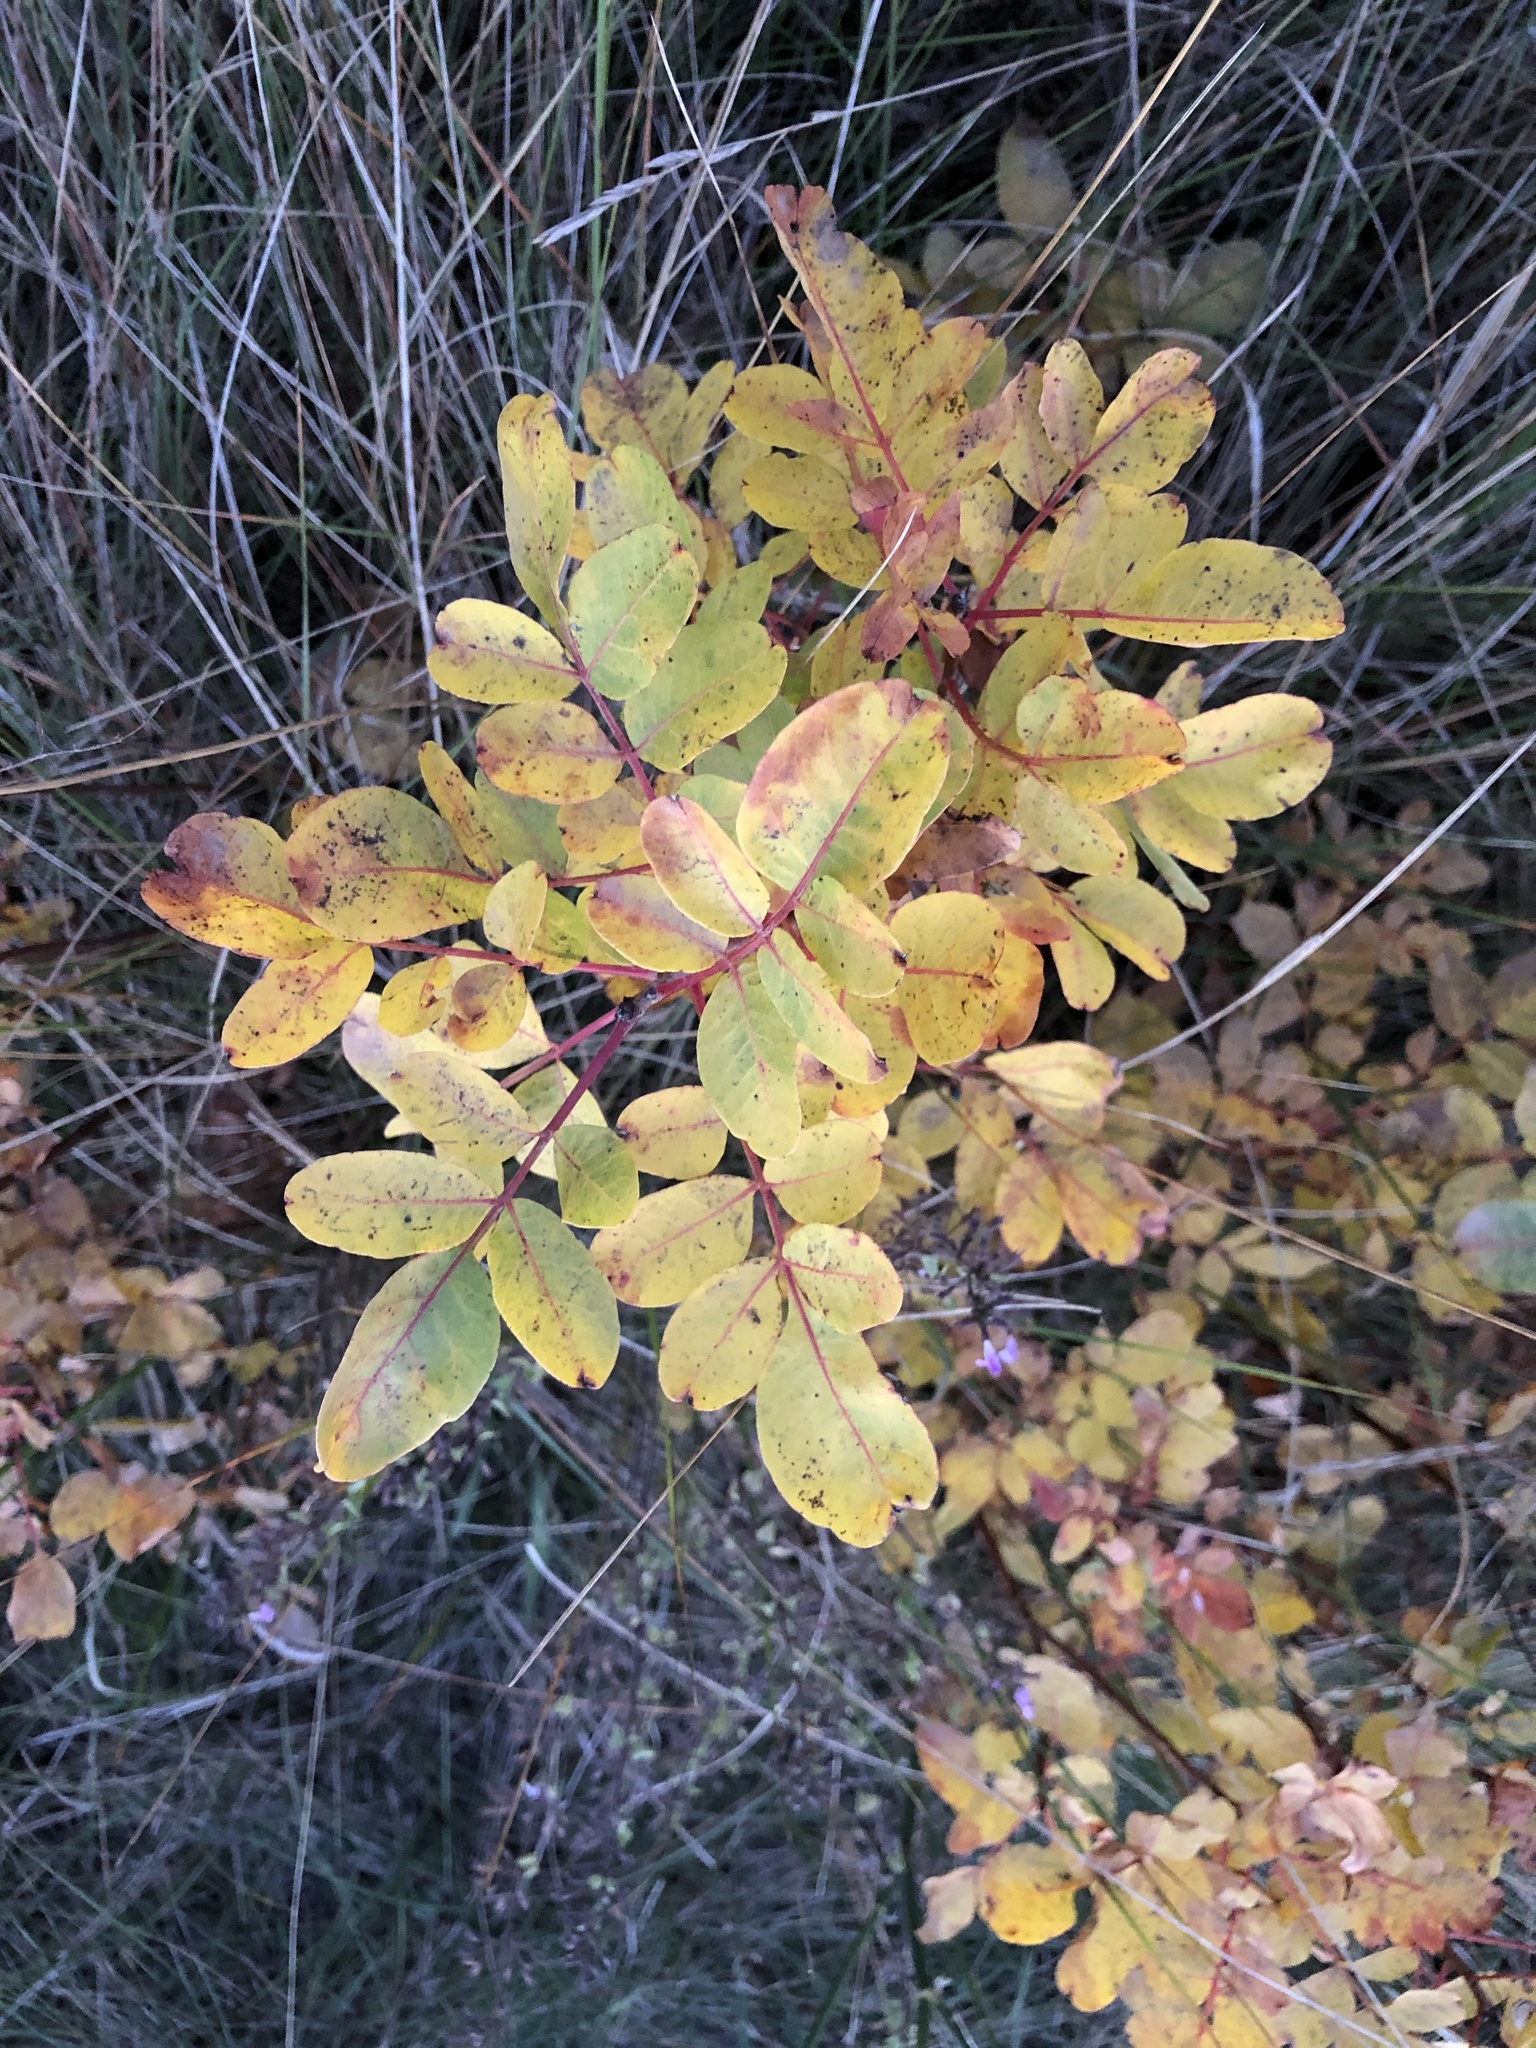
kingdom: Plantae
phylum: Tracheophyta
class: Magnoliopsida
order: Sapindales
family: Anacardiaceae
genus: Pistacia
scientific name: Pistacia terebinthus
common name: Terebinth
